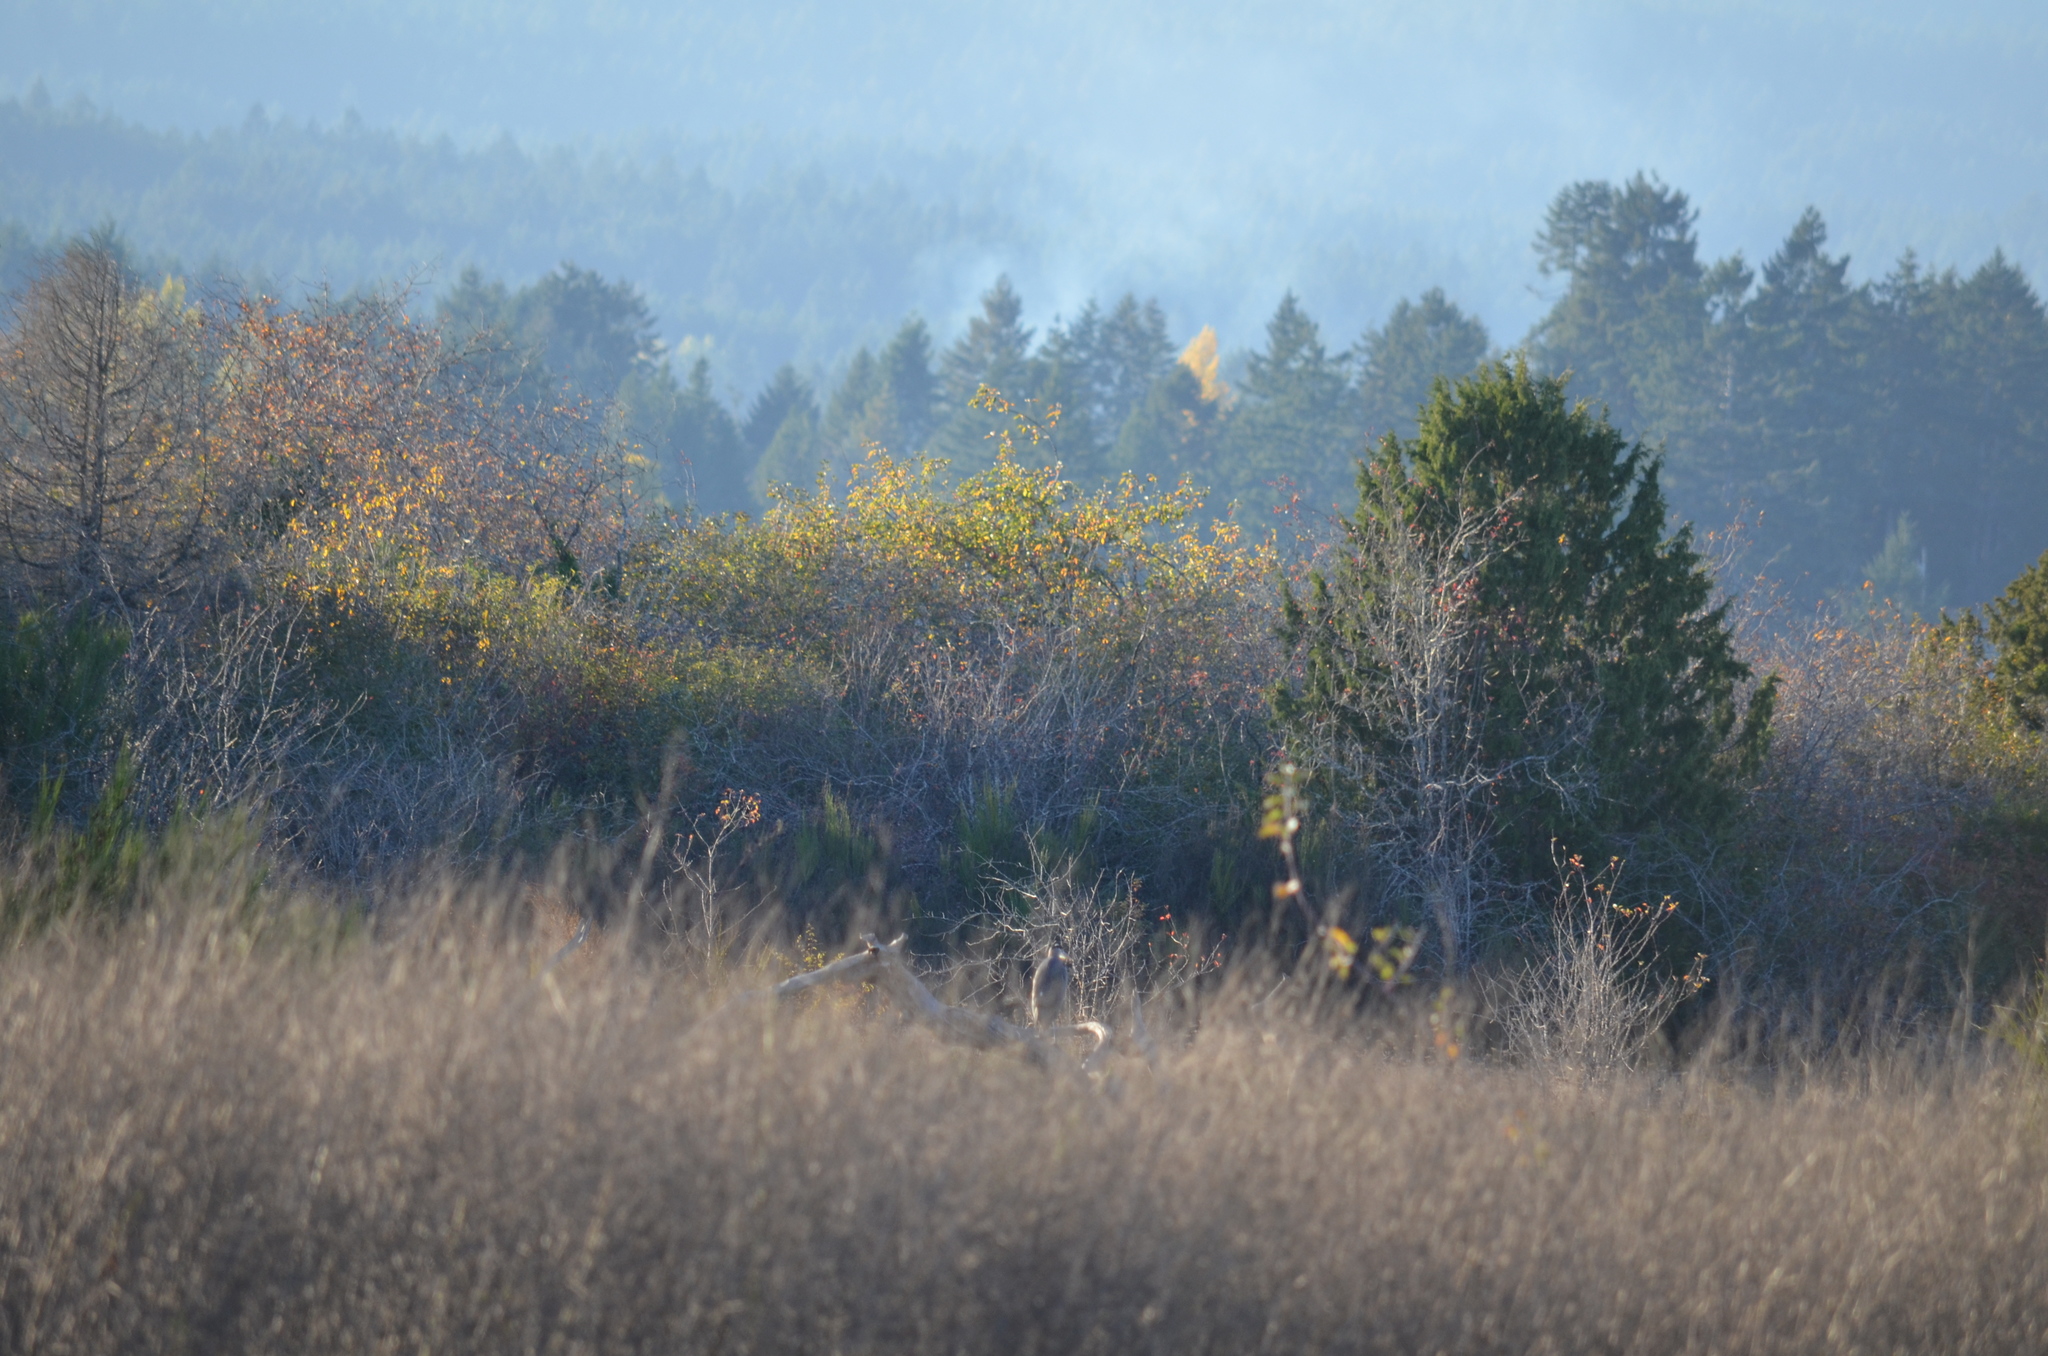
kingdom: Animalia
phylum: Chordata
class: Aves
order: Pelecaniformes
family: Ardeidae
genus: Ardea
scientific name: Ardea herodias
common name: Great blue heron
